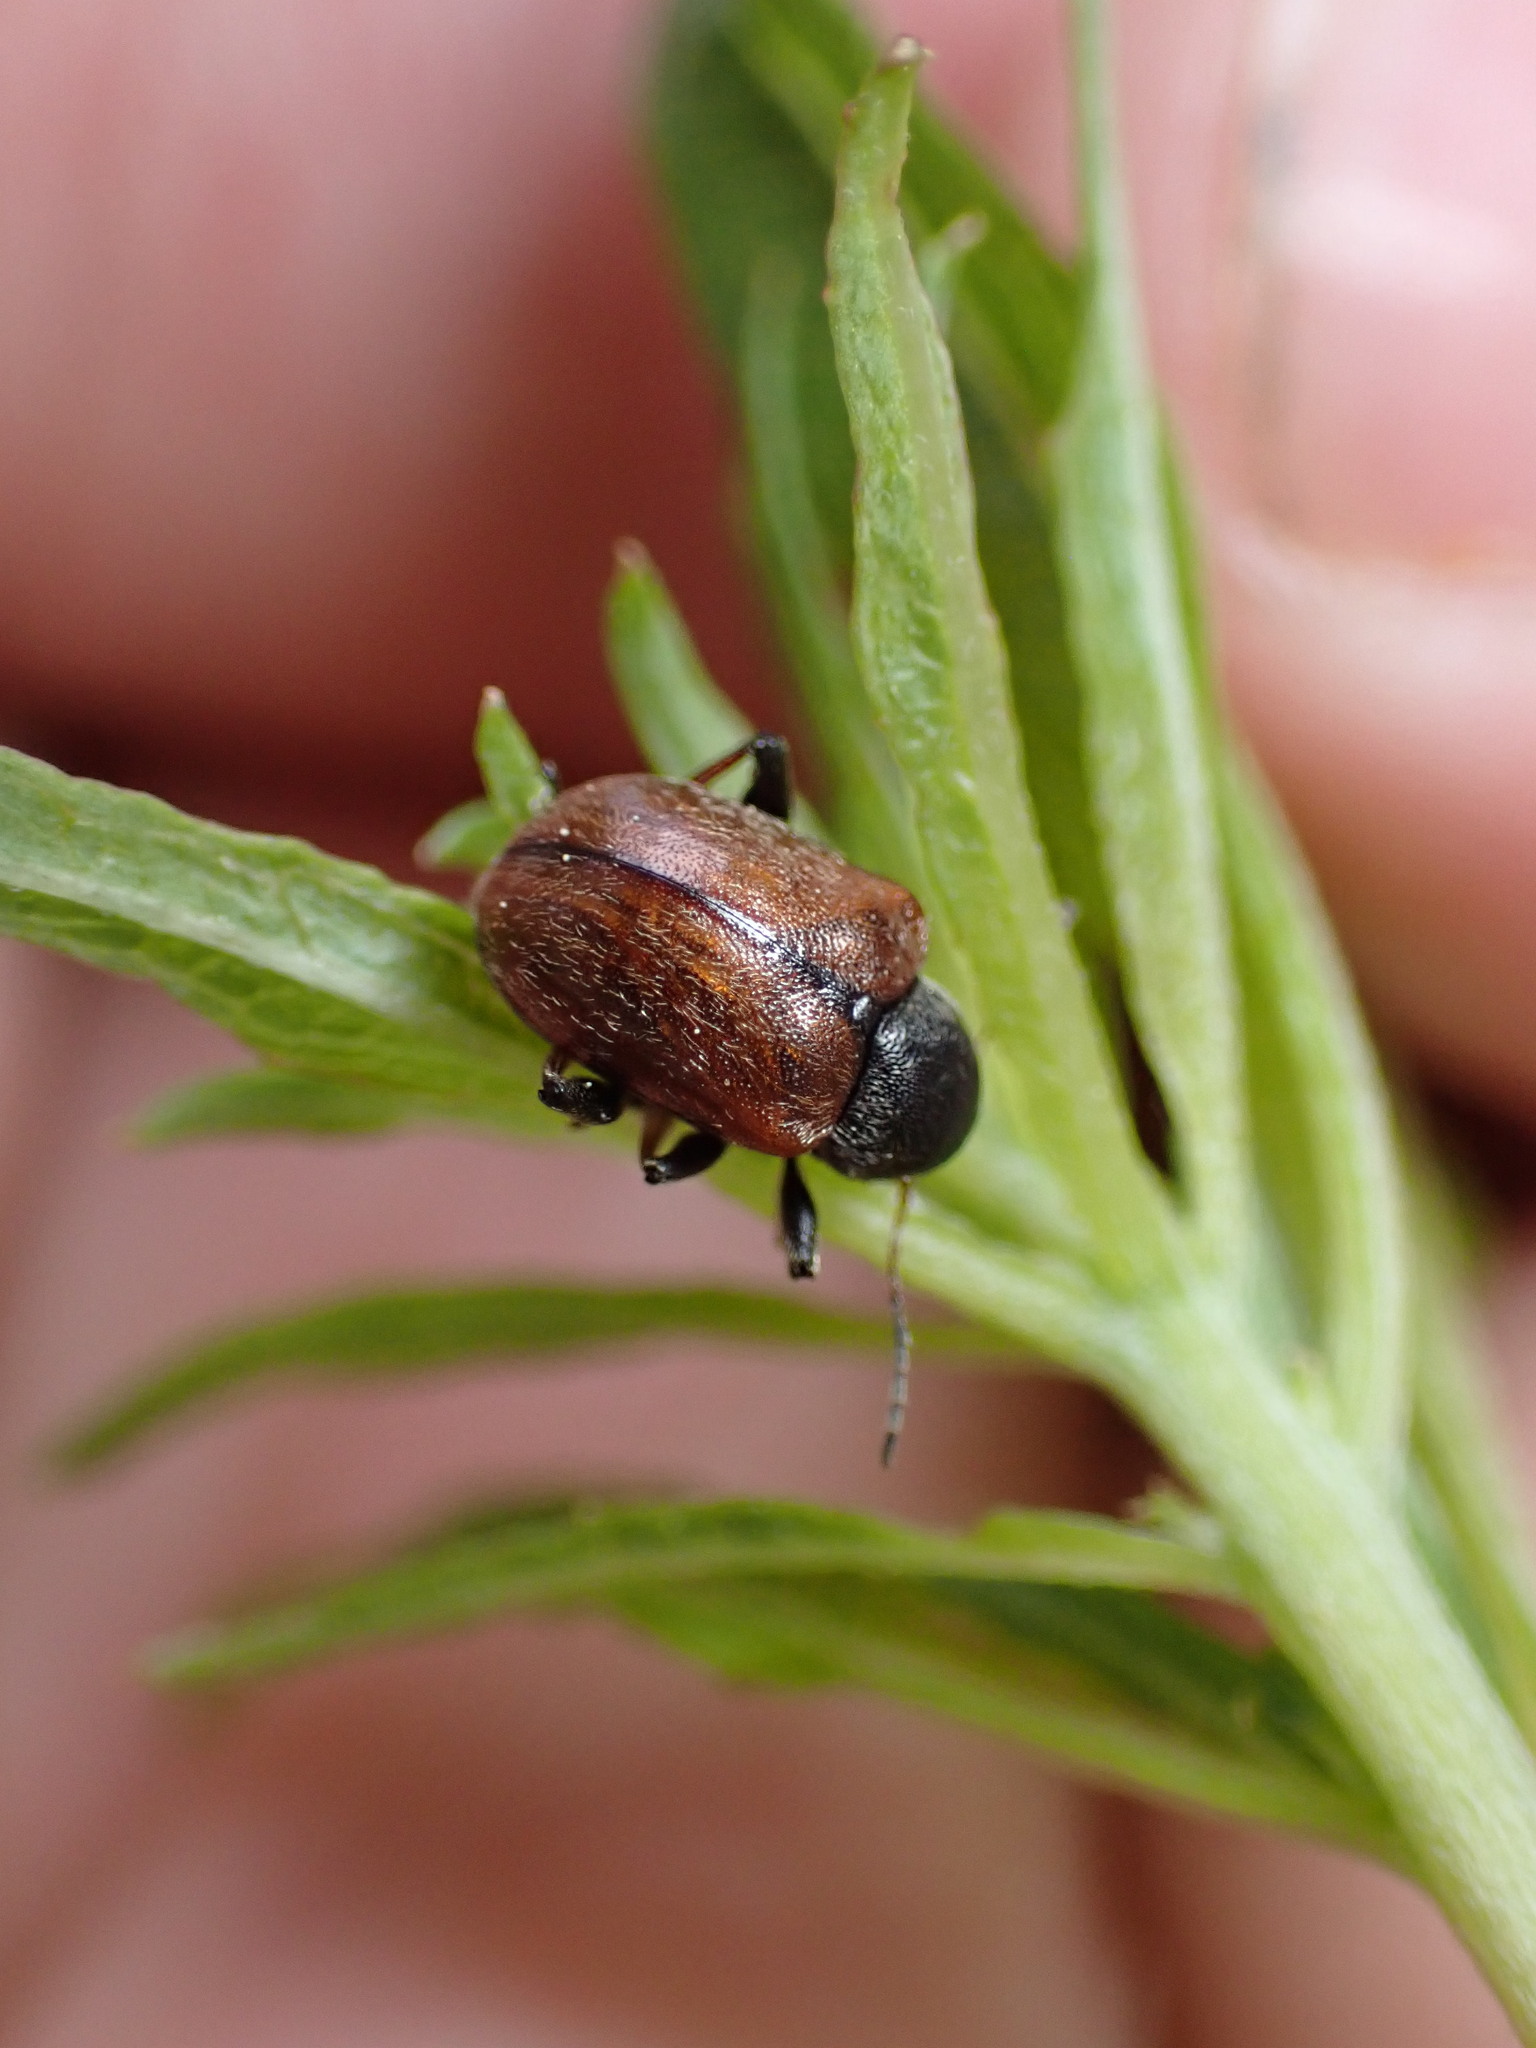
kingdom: Animalia
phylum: Arthropoda
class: Insecta
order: Coleoptera
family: Chrysomelidae
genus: Bromius
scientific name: Bromius obscurus
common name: Western grape rootworm
